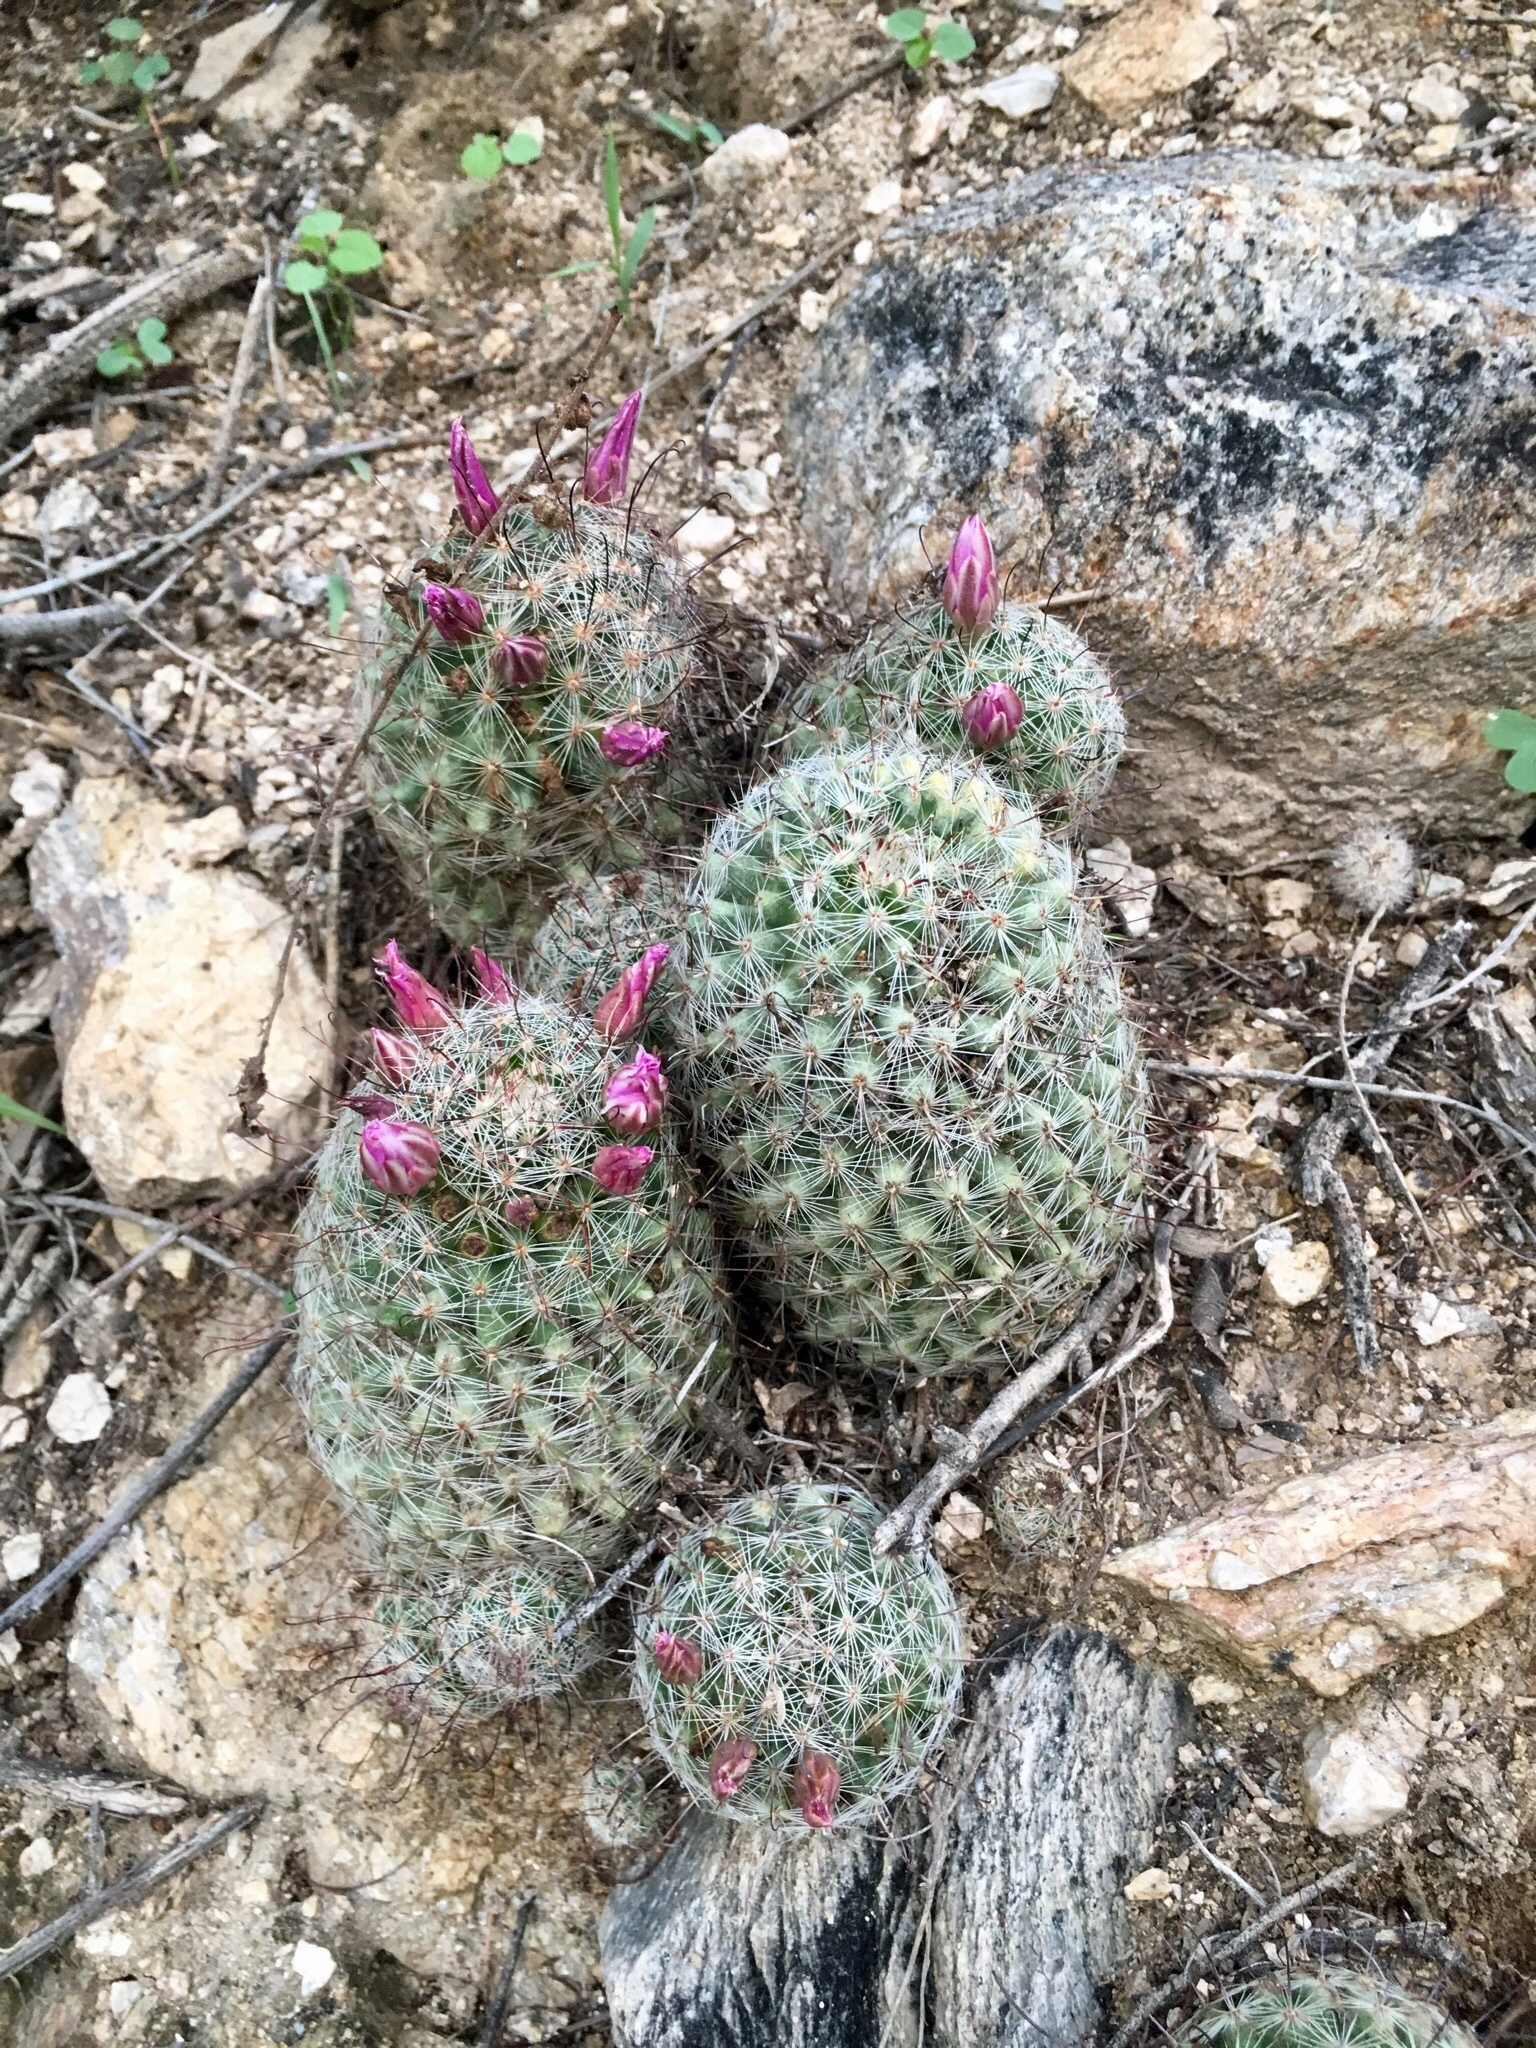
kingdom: Plantae
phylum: Tracheophyta
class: Magnoliopsida
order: Caryophyllales
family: Cactaceae
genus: Cochemiea
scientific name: Cochemiea grahamii
